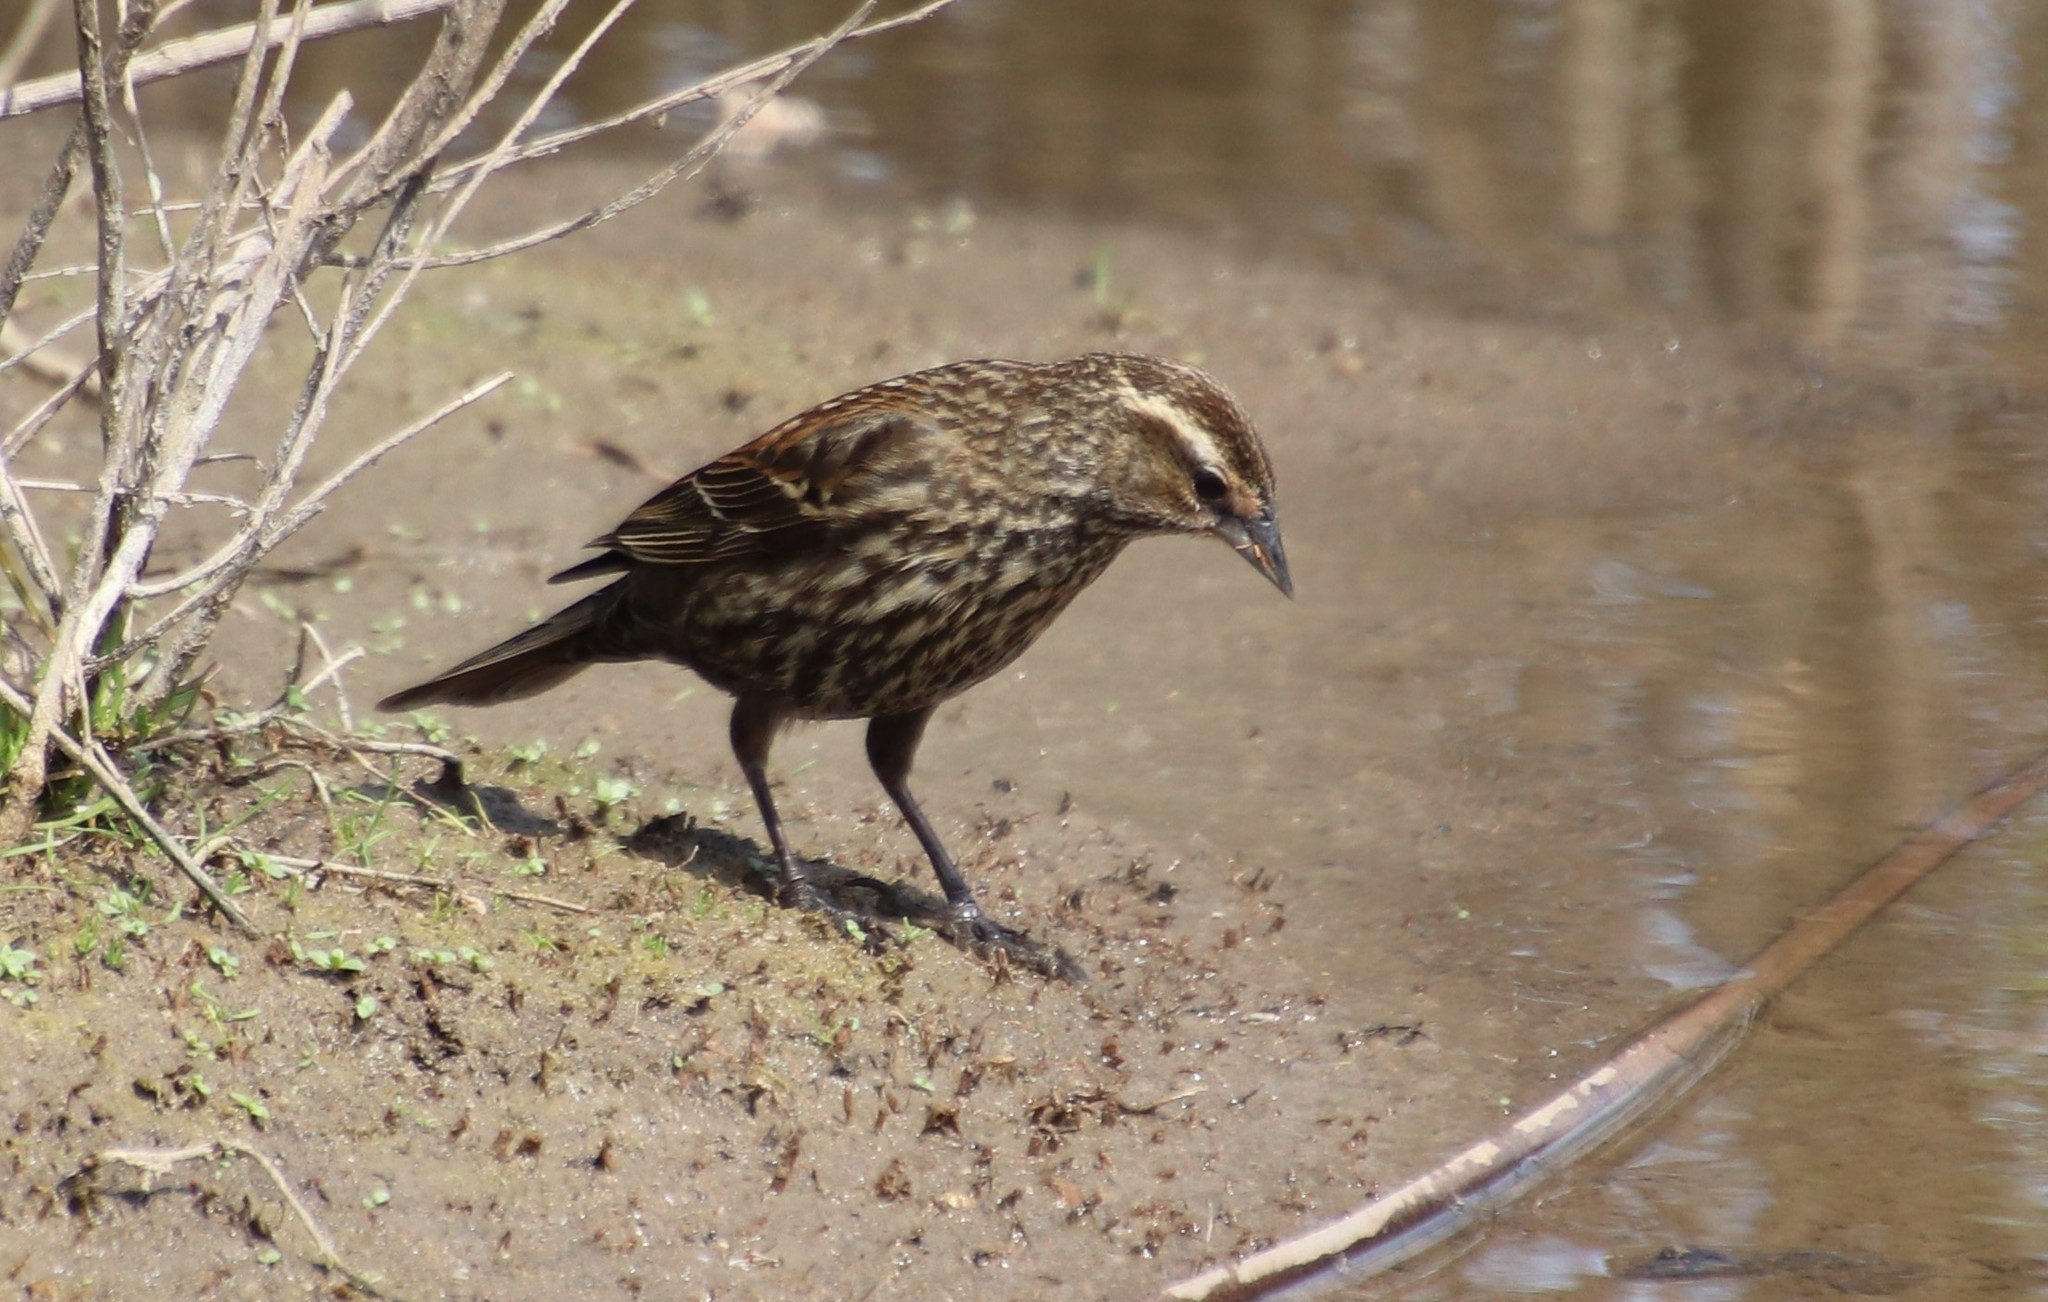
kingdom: Animalia
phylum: Chordata
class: Aves
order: Passeriformes
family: Icteridae
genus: Agelaius
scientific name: Agelaius phoeniceus
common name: Red-winged blackbird
